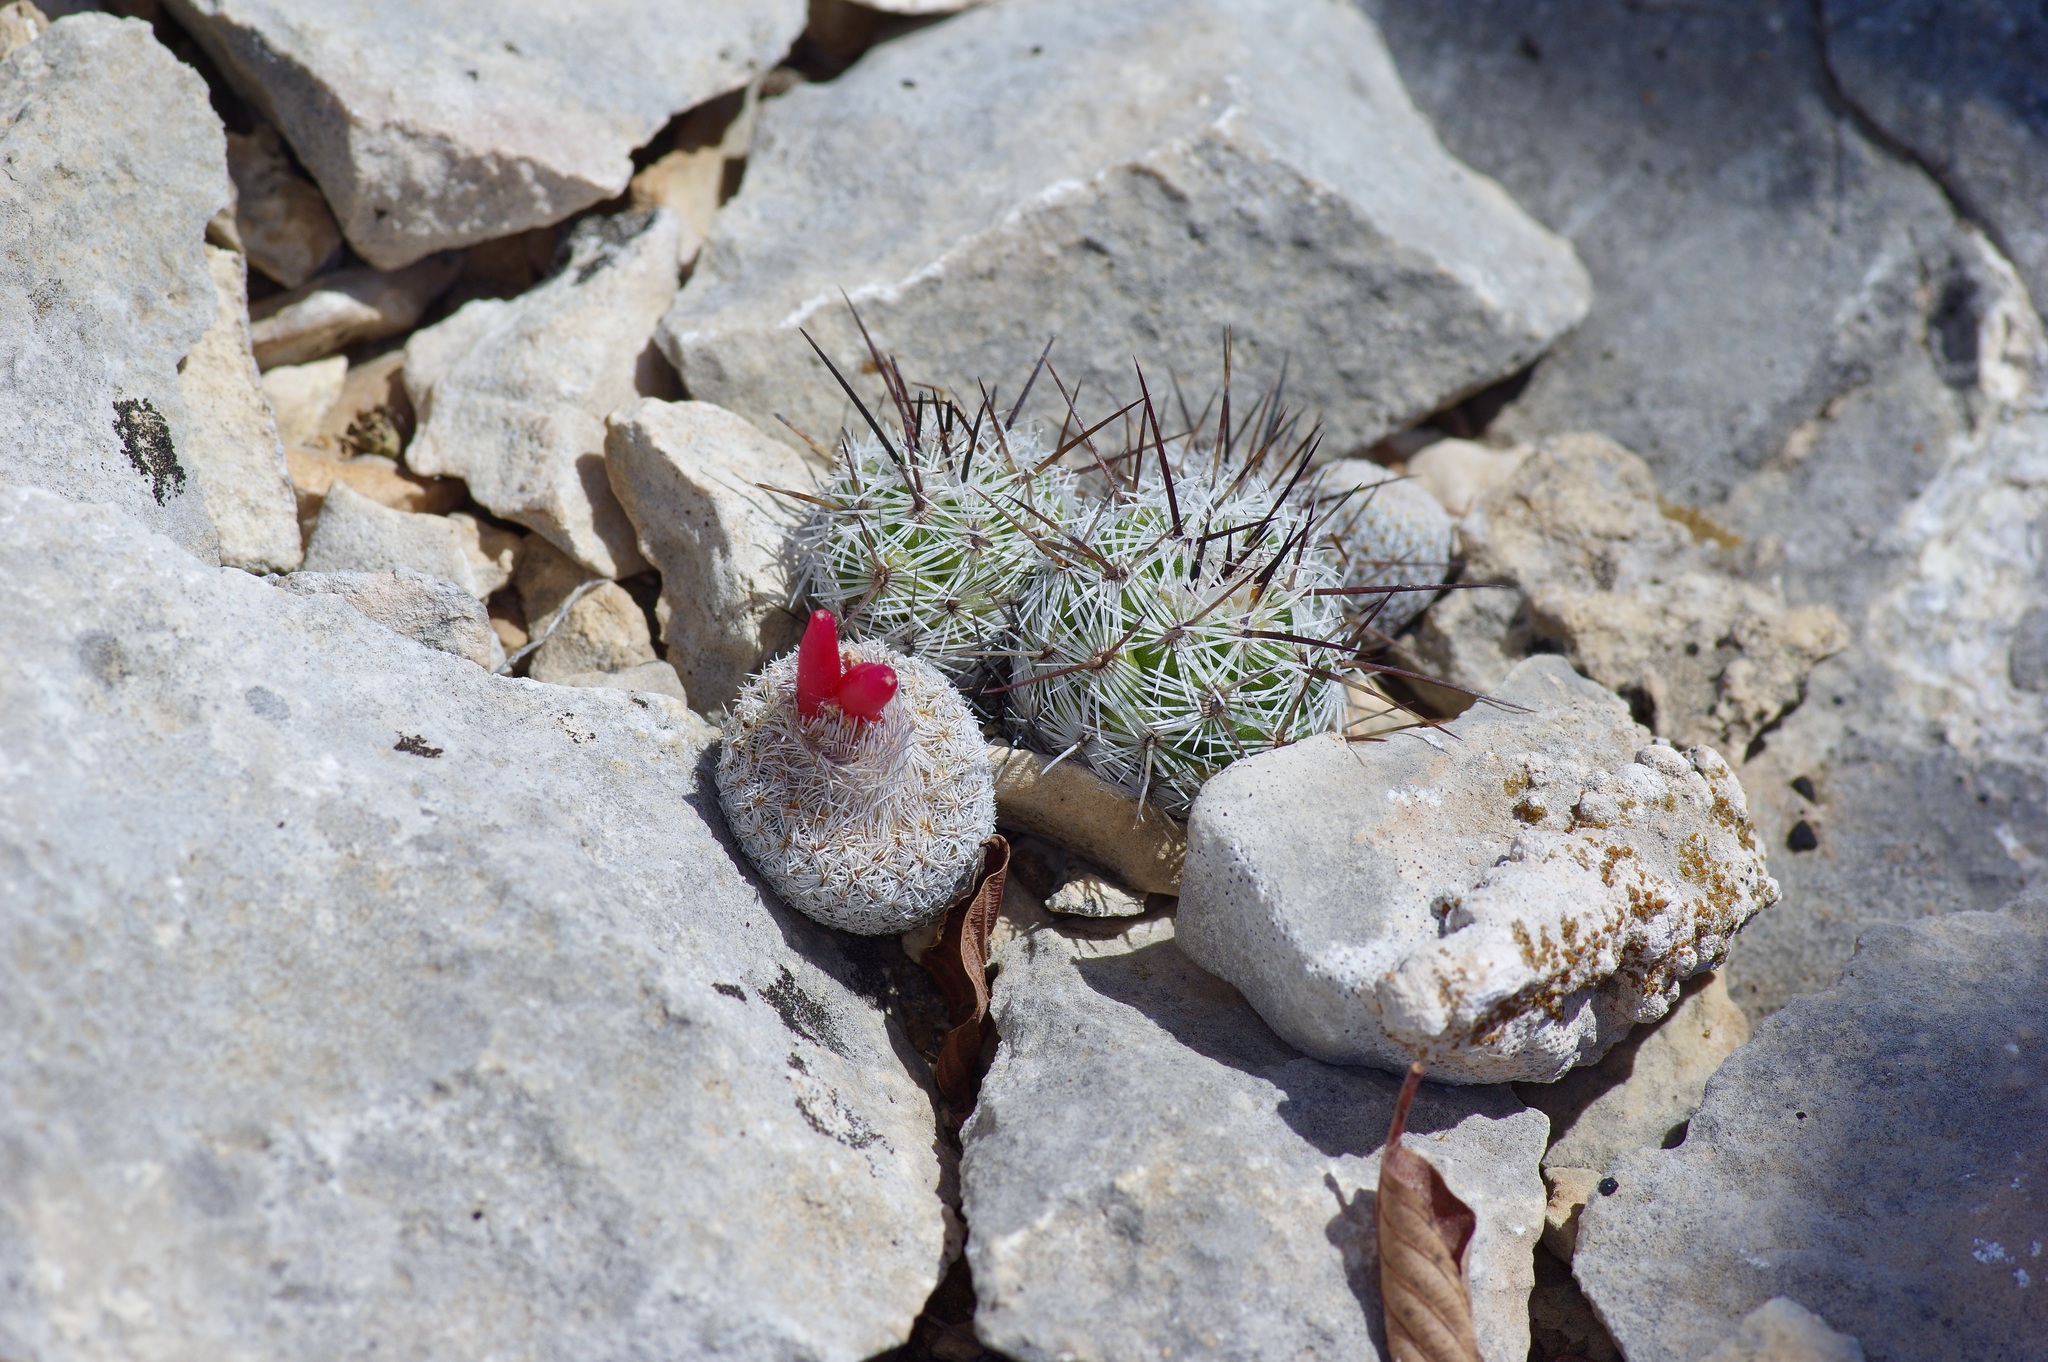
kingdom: Plantae
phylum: Tracheophyta
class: Magnoliopsida
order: Caryophyllales
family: Cactaceae
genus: Epithelantha
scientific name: Epithelantha micromeris
